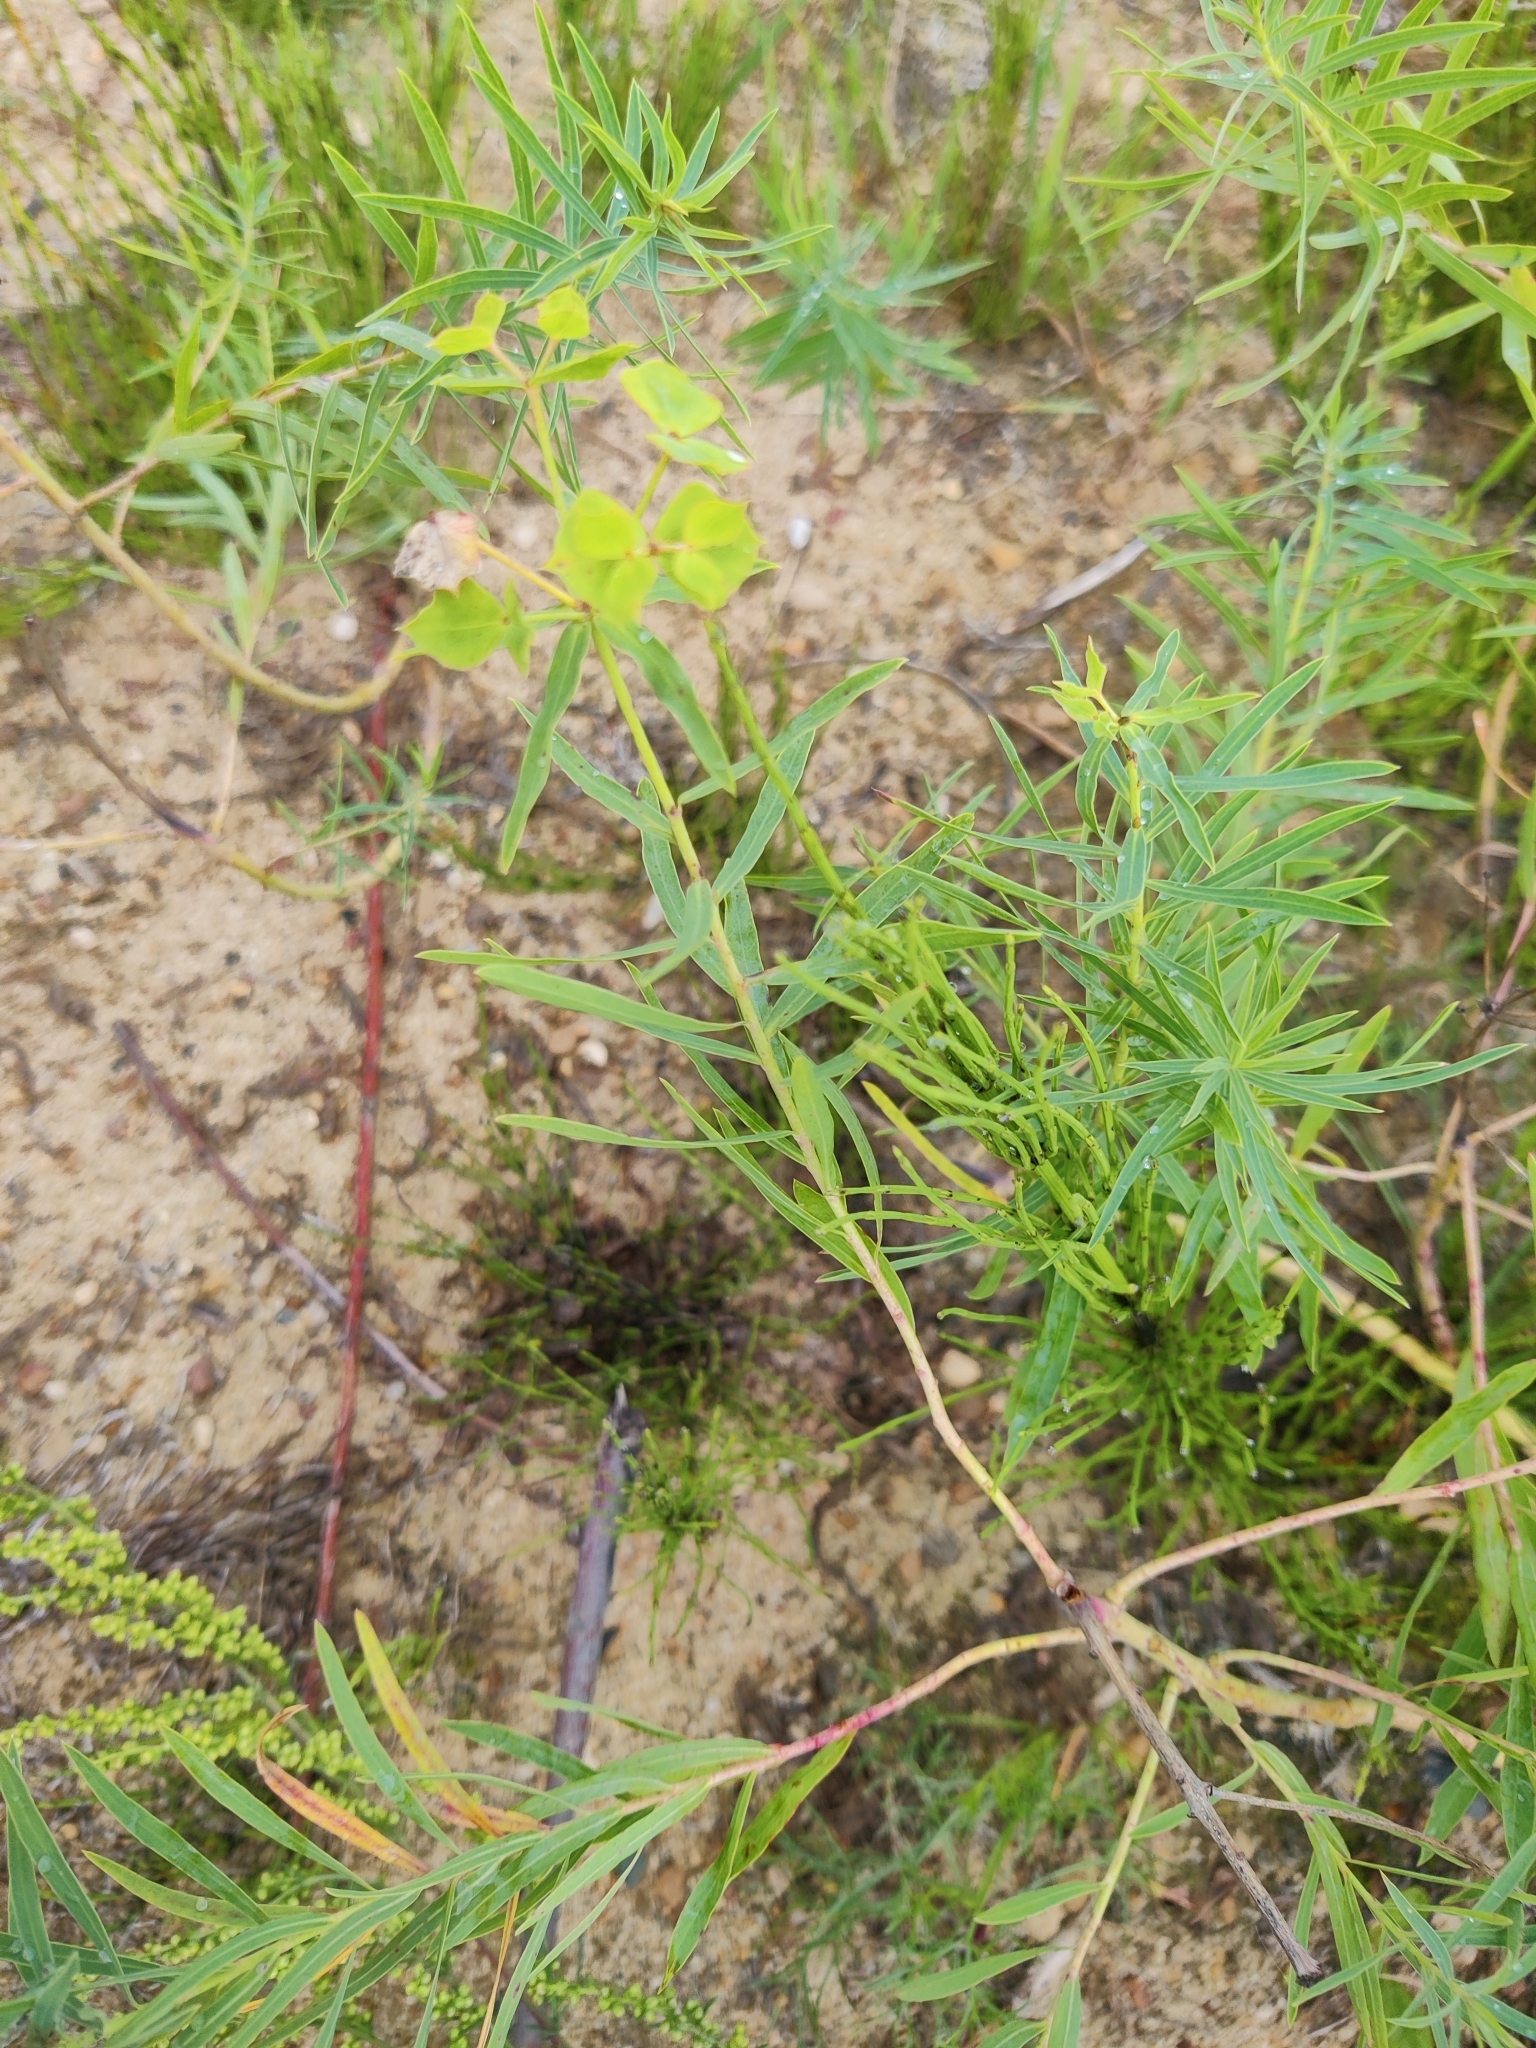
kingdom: Plantae
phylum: Tracheophyta
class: Magnoliopsida
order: Malpighiales
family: Euphorbiaceae
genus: Euphorbia
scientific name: Euphorbia virgata
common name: Leafy spurge
